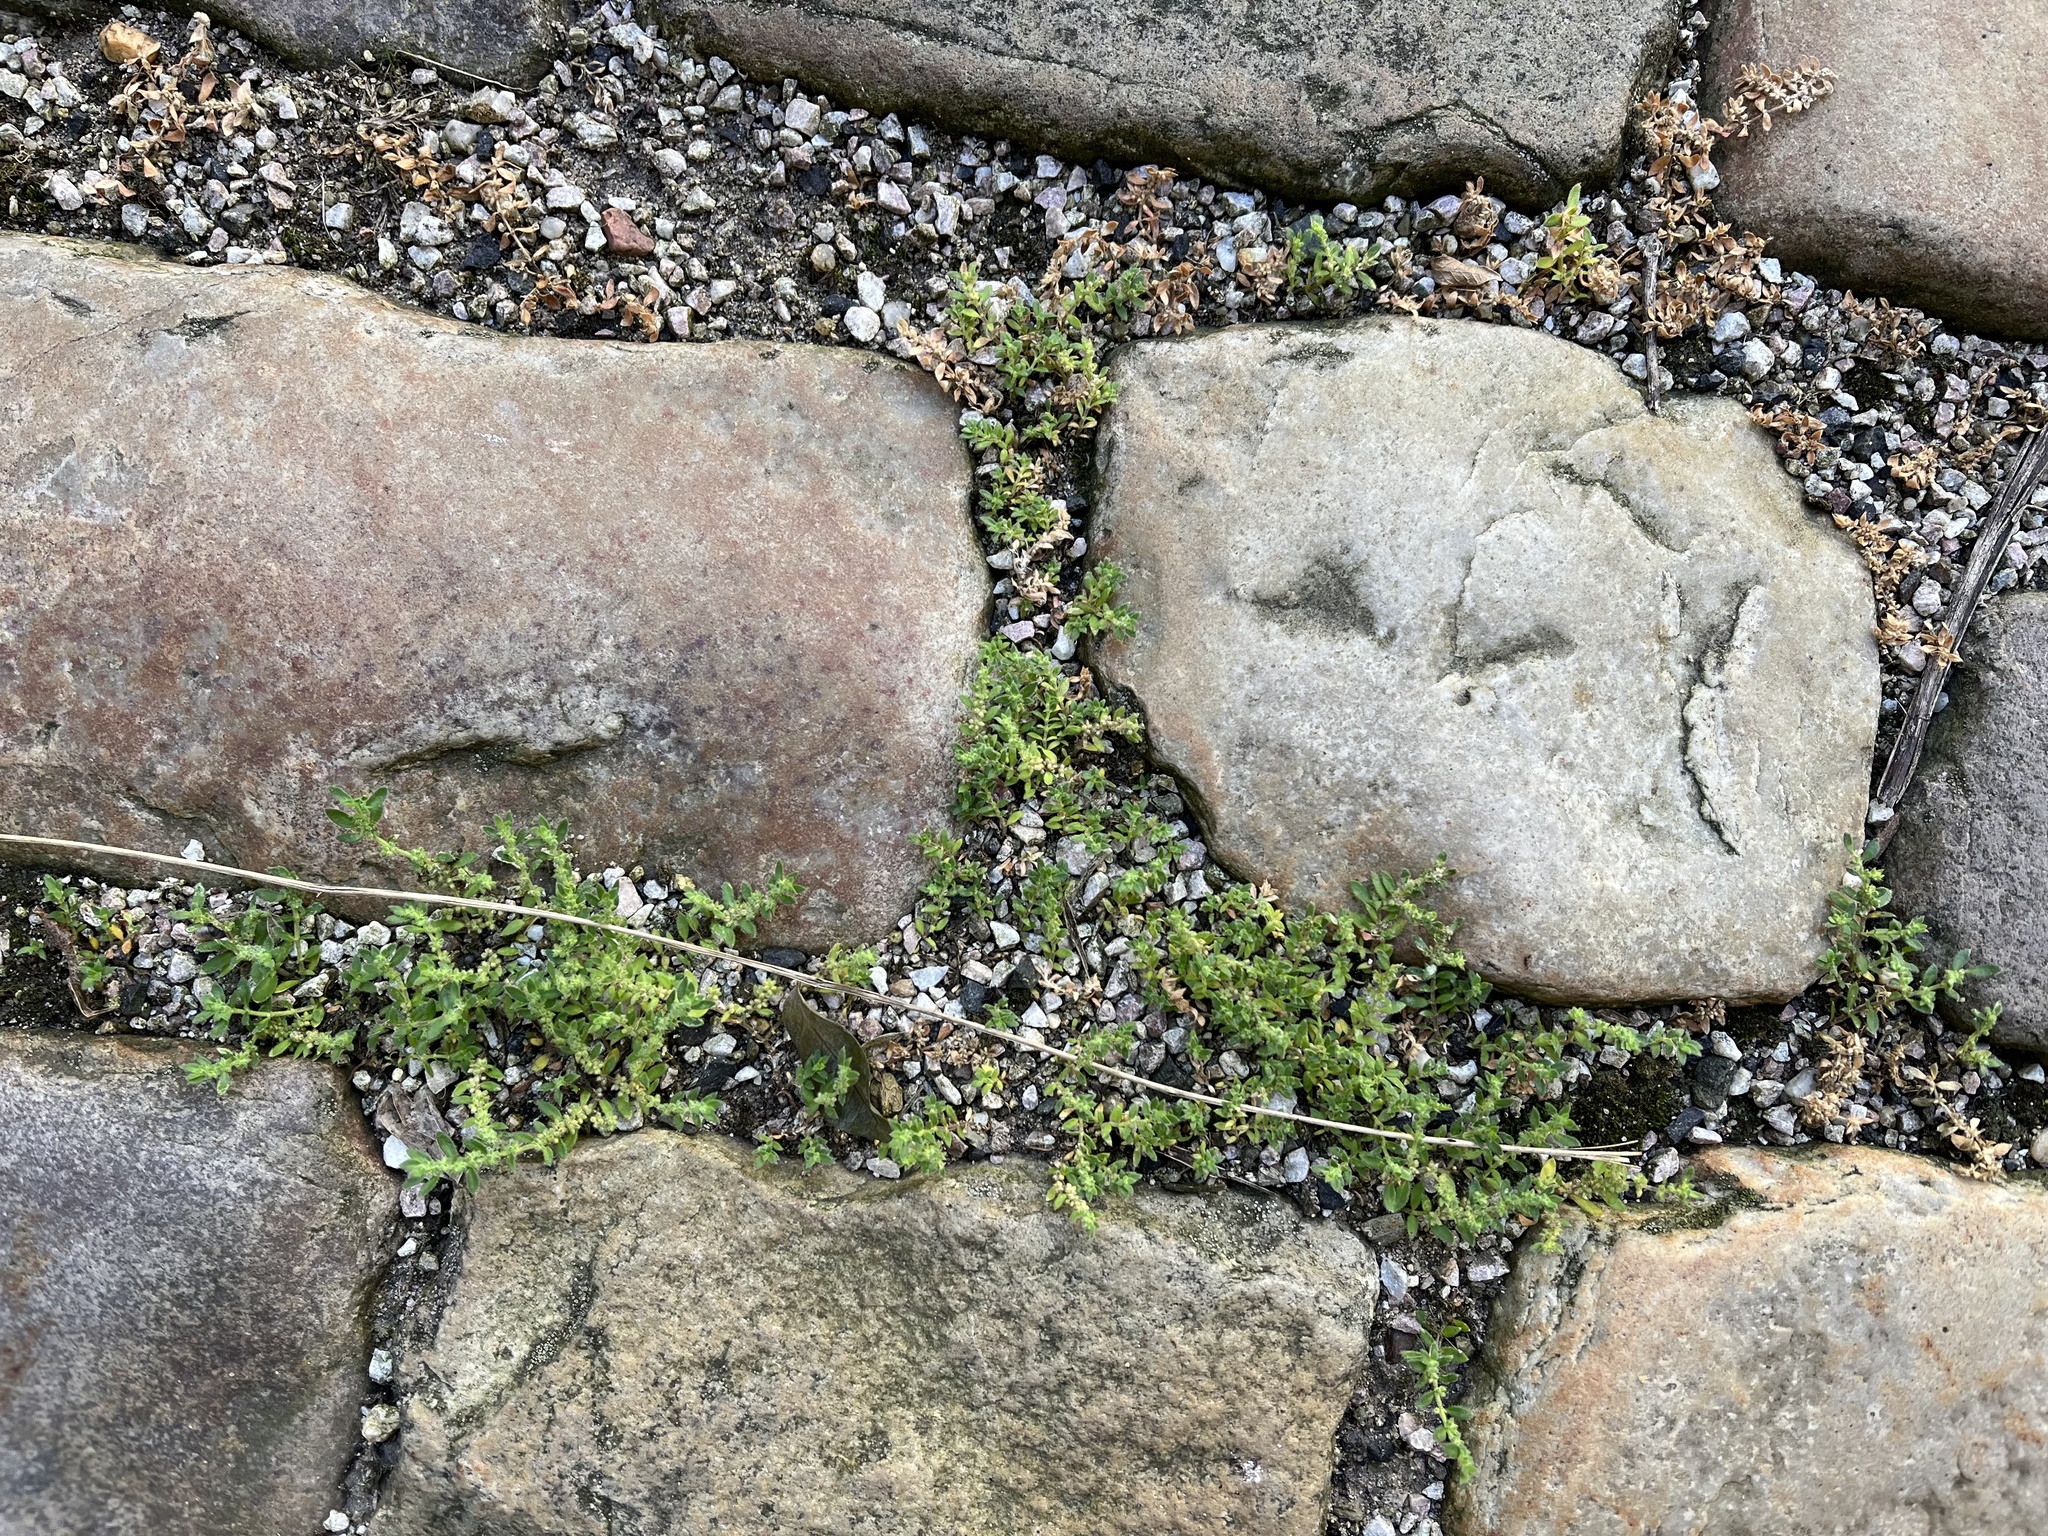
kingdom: Plantae
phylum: Tracheophyta
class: Magnoliopsida
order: Caryophyllales
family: Caryophyllaceae
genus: Herniaria
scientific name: Herniaria hirsuta
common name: Hairy rupturewort
